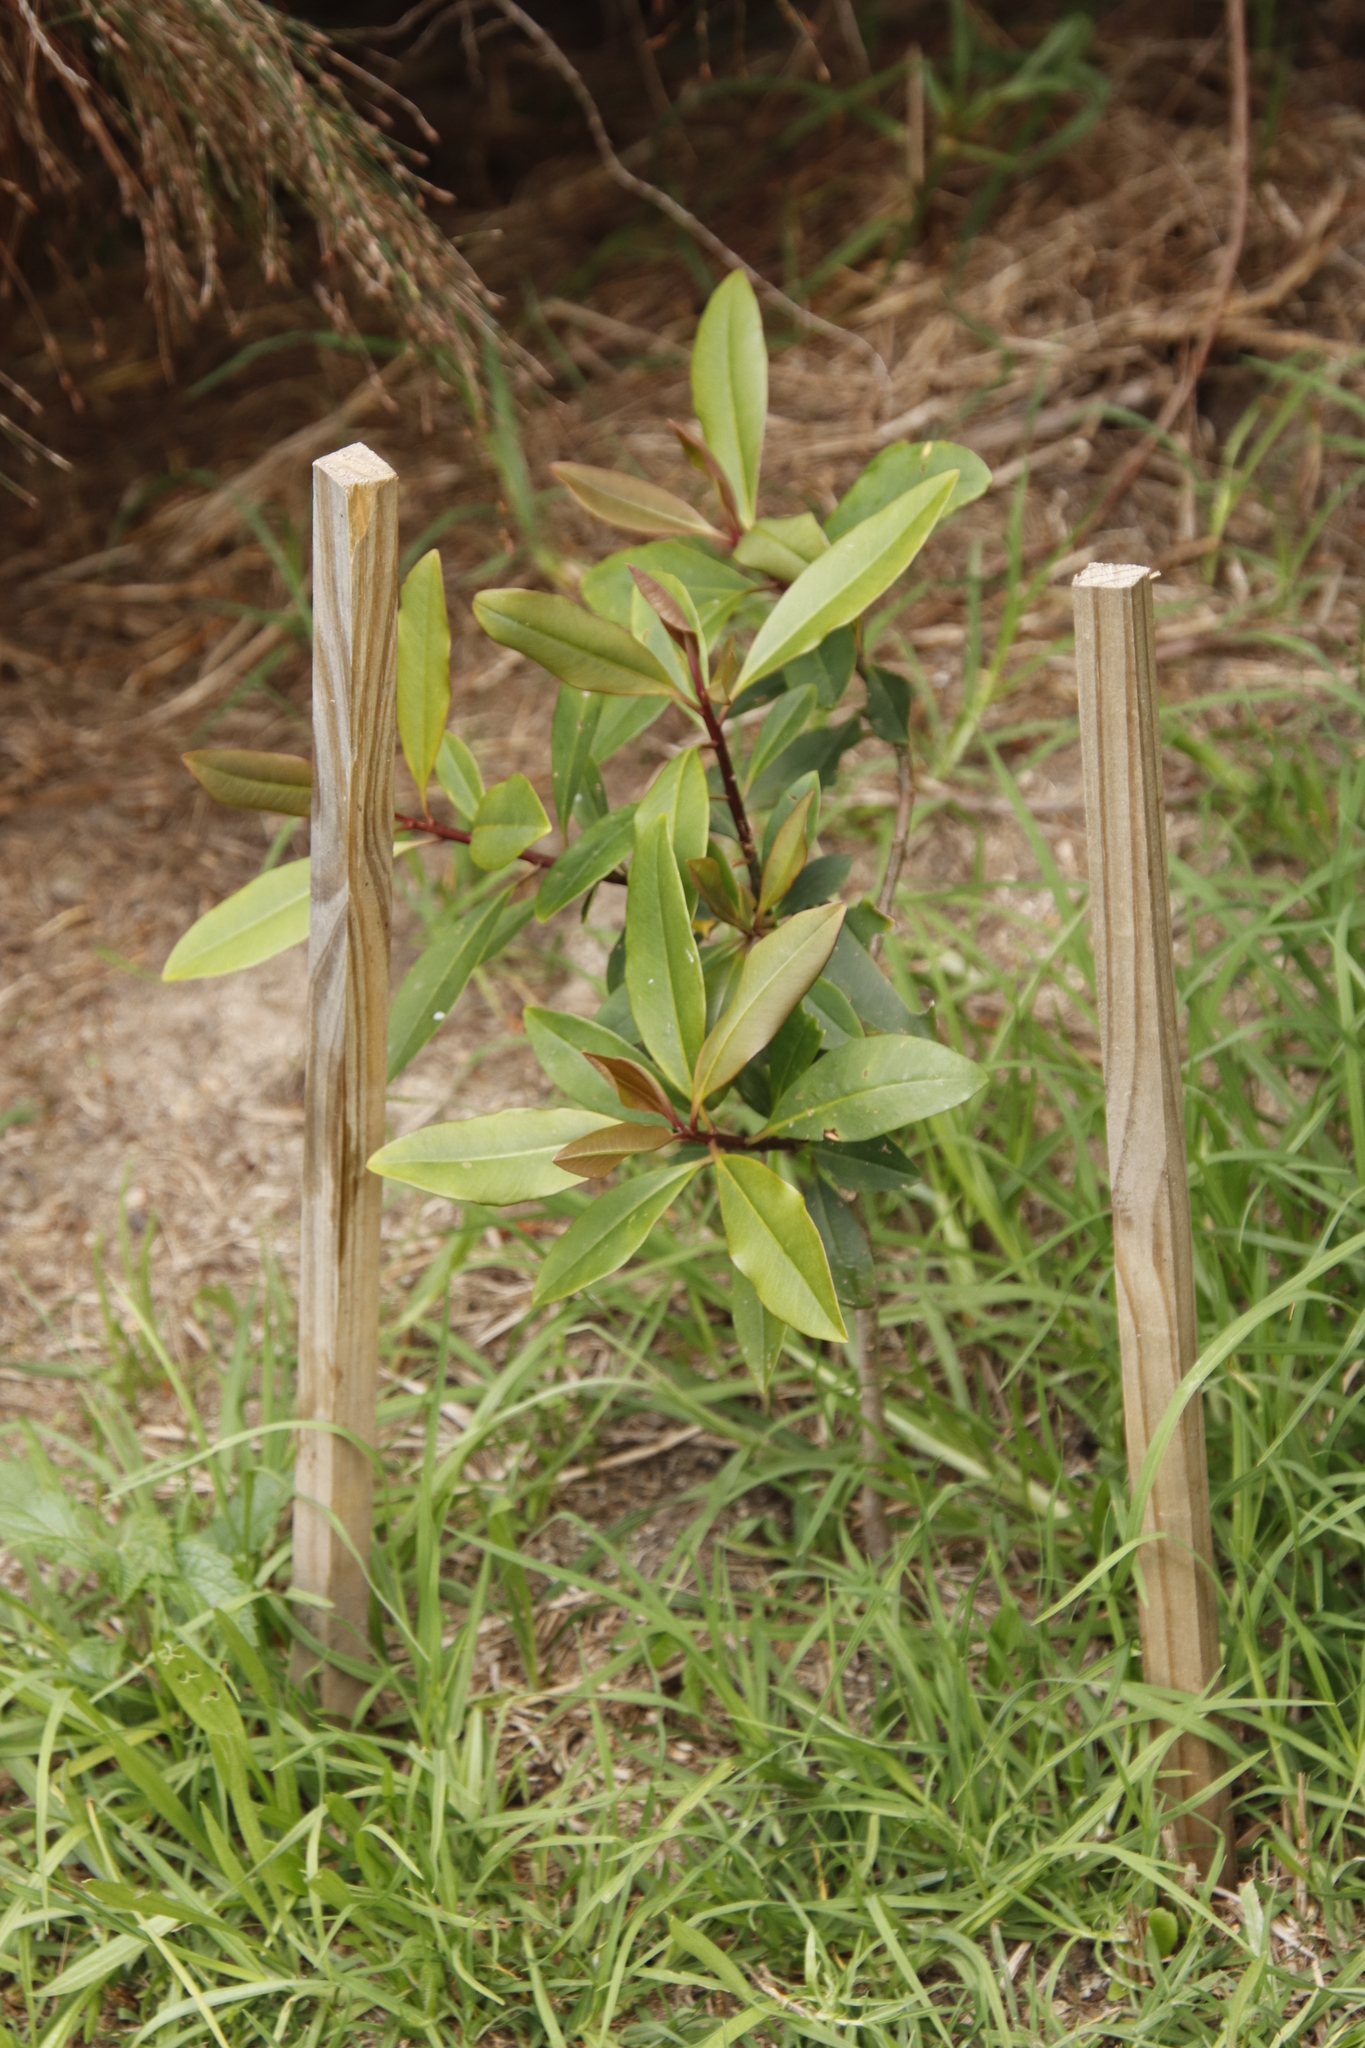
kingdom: Plantae
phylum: Tracheophyta
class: Magnoliopsida
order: Ericales
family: Primulaceae
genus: Myrsine
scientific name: Myrsine melanophloeos
